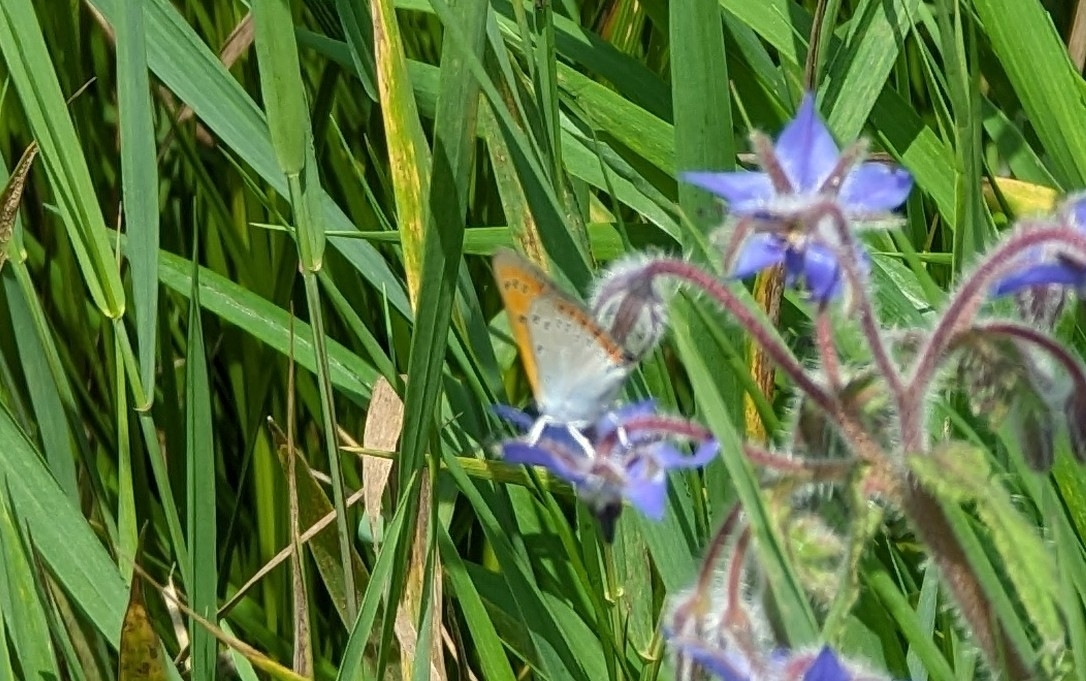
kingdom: Animalia
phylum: Arthropoda
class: Insecta
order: Lepidoptera
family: Lycaenidae
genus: Lycaena
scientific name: Lycaena dispar
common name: Large copper
